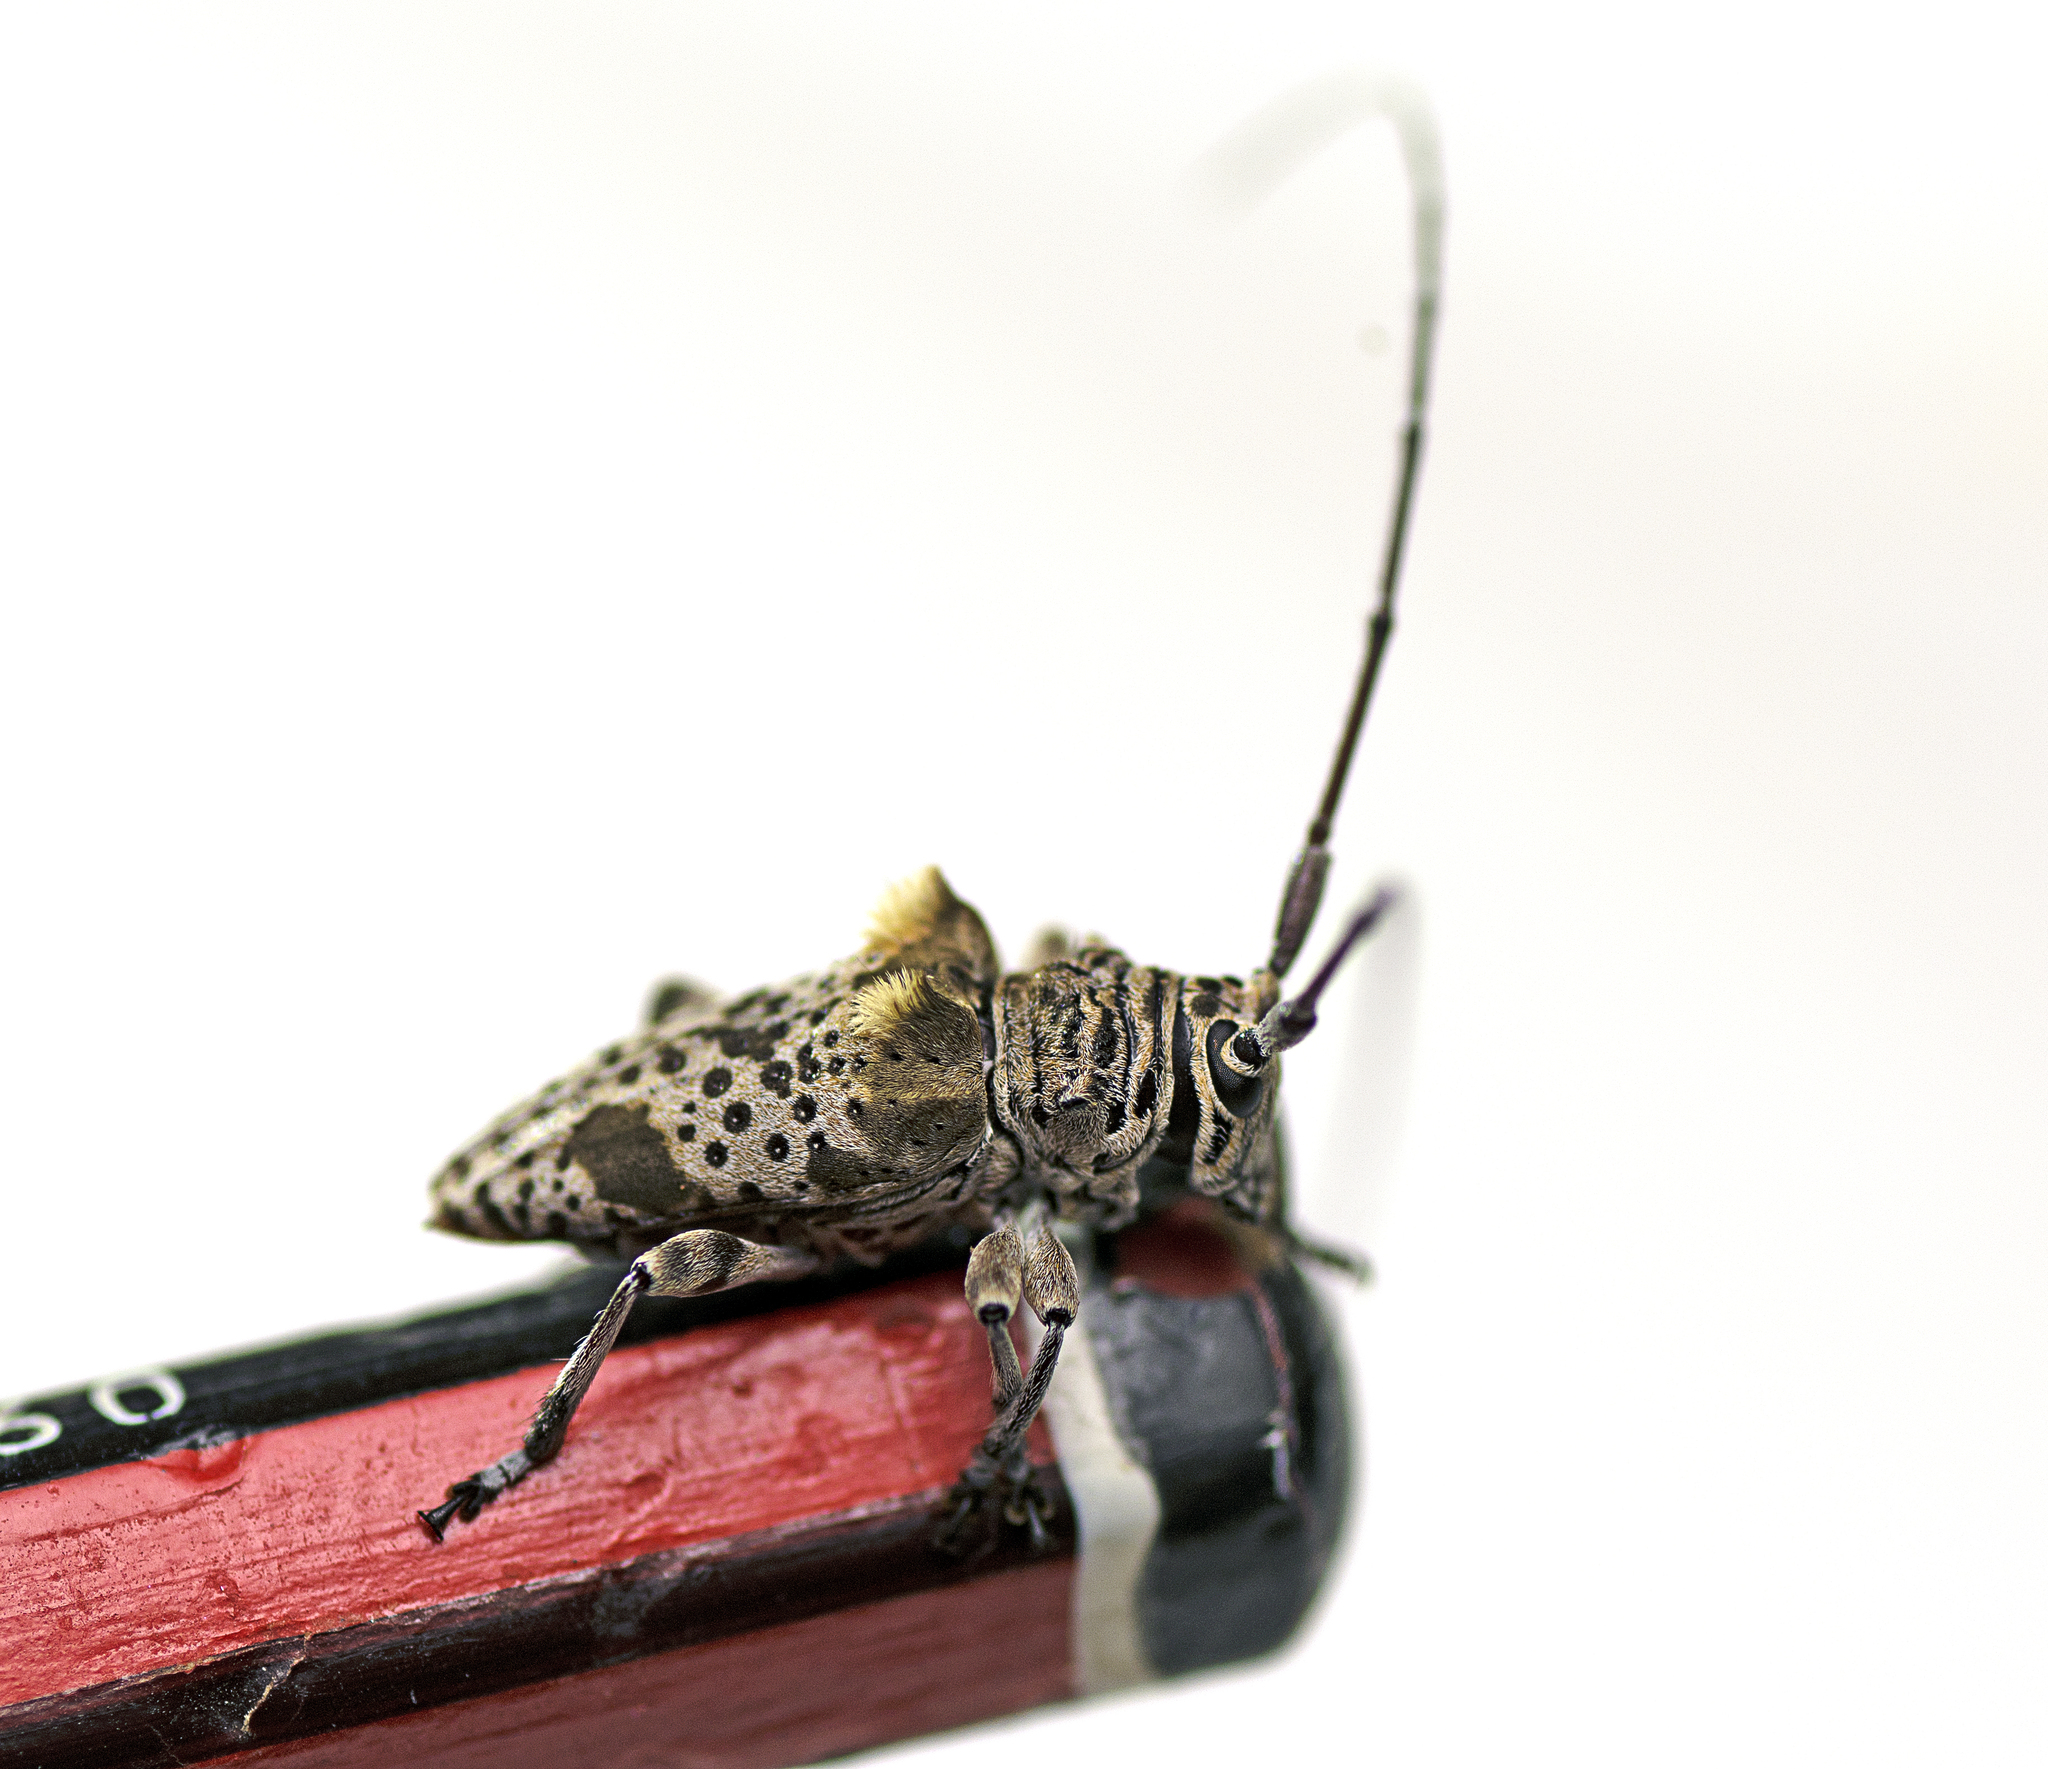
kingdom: Animalia
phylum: Arthropoda
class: Insecta
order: Coleoptera
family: Cerambycidae
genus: Disterna
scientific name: Disterna plumifera
